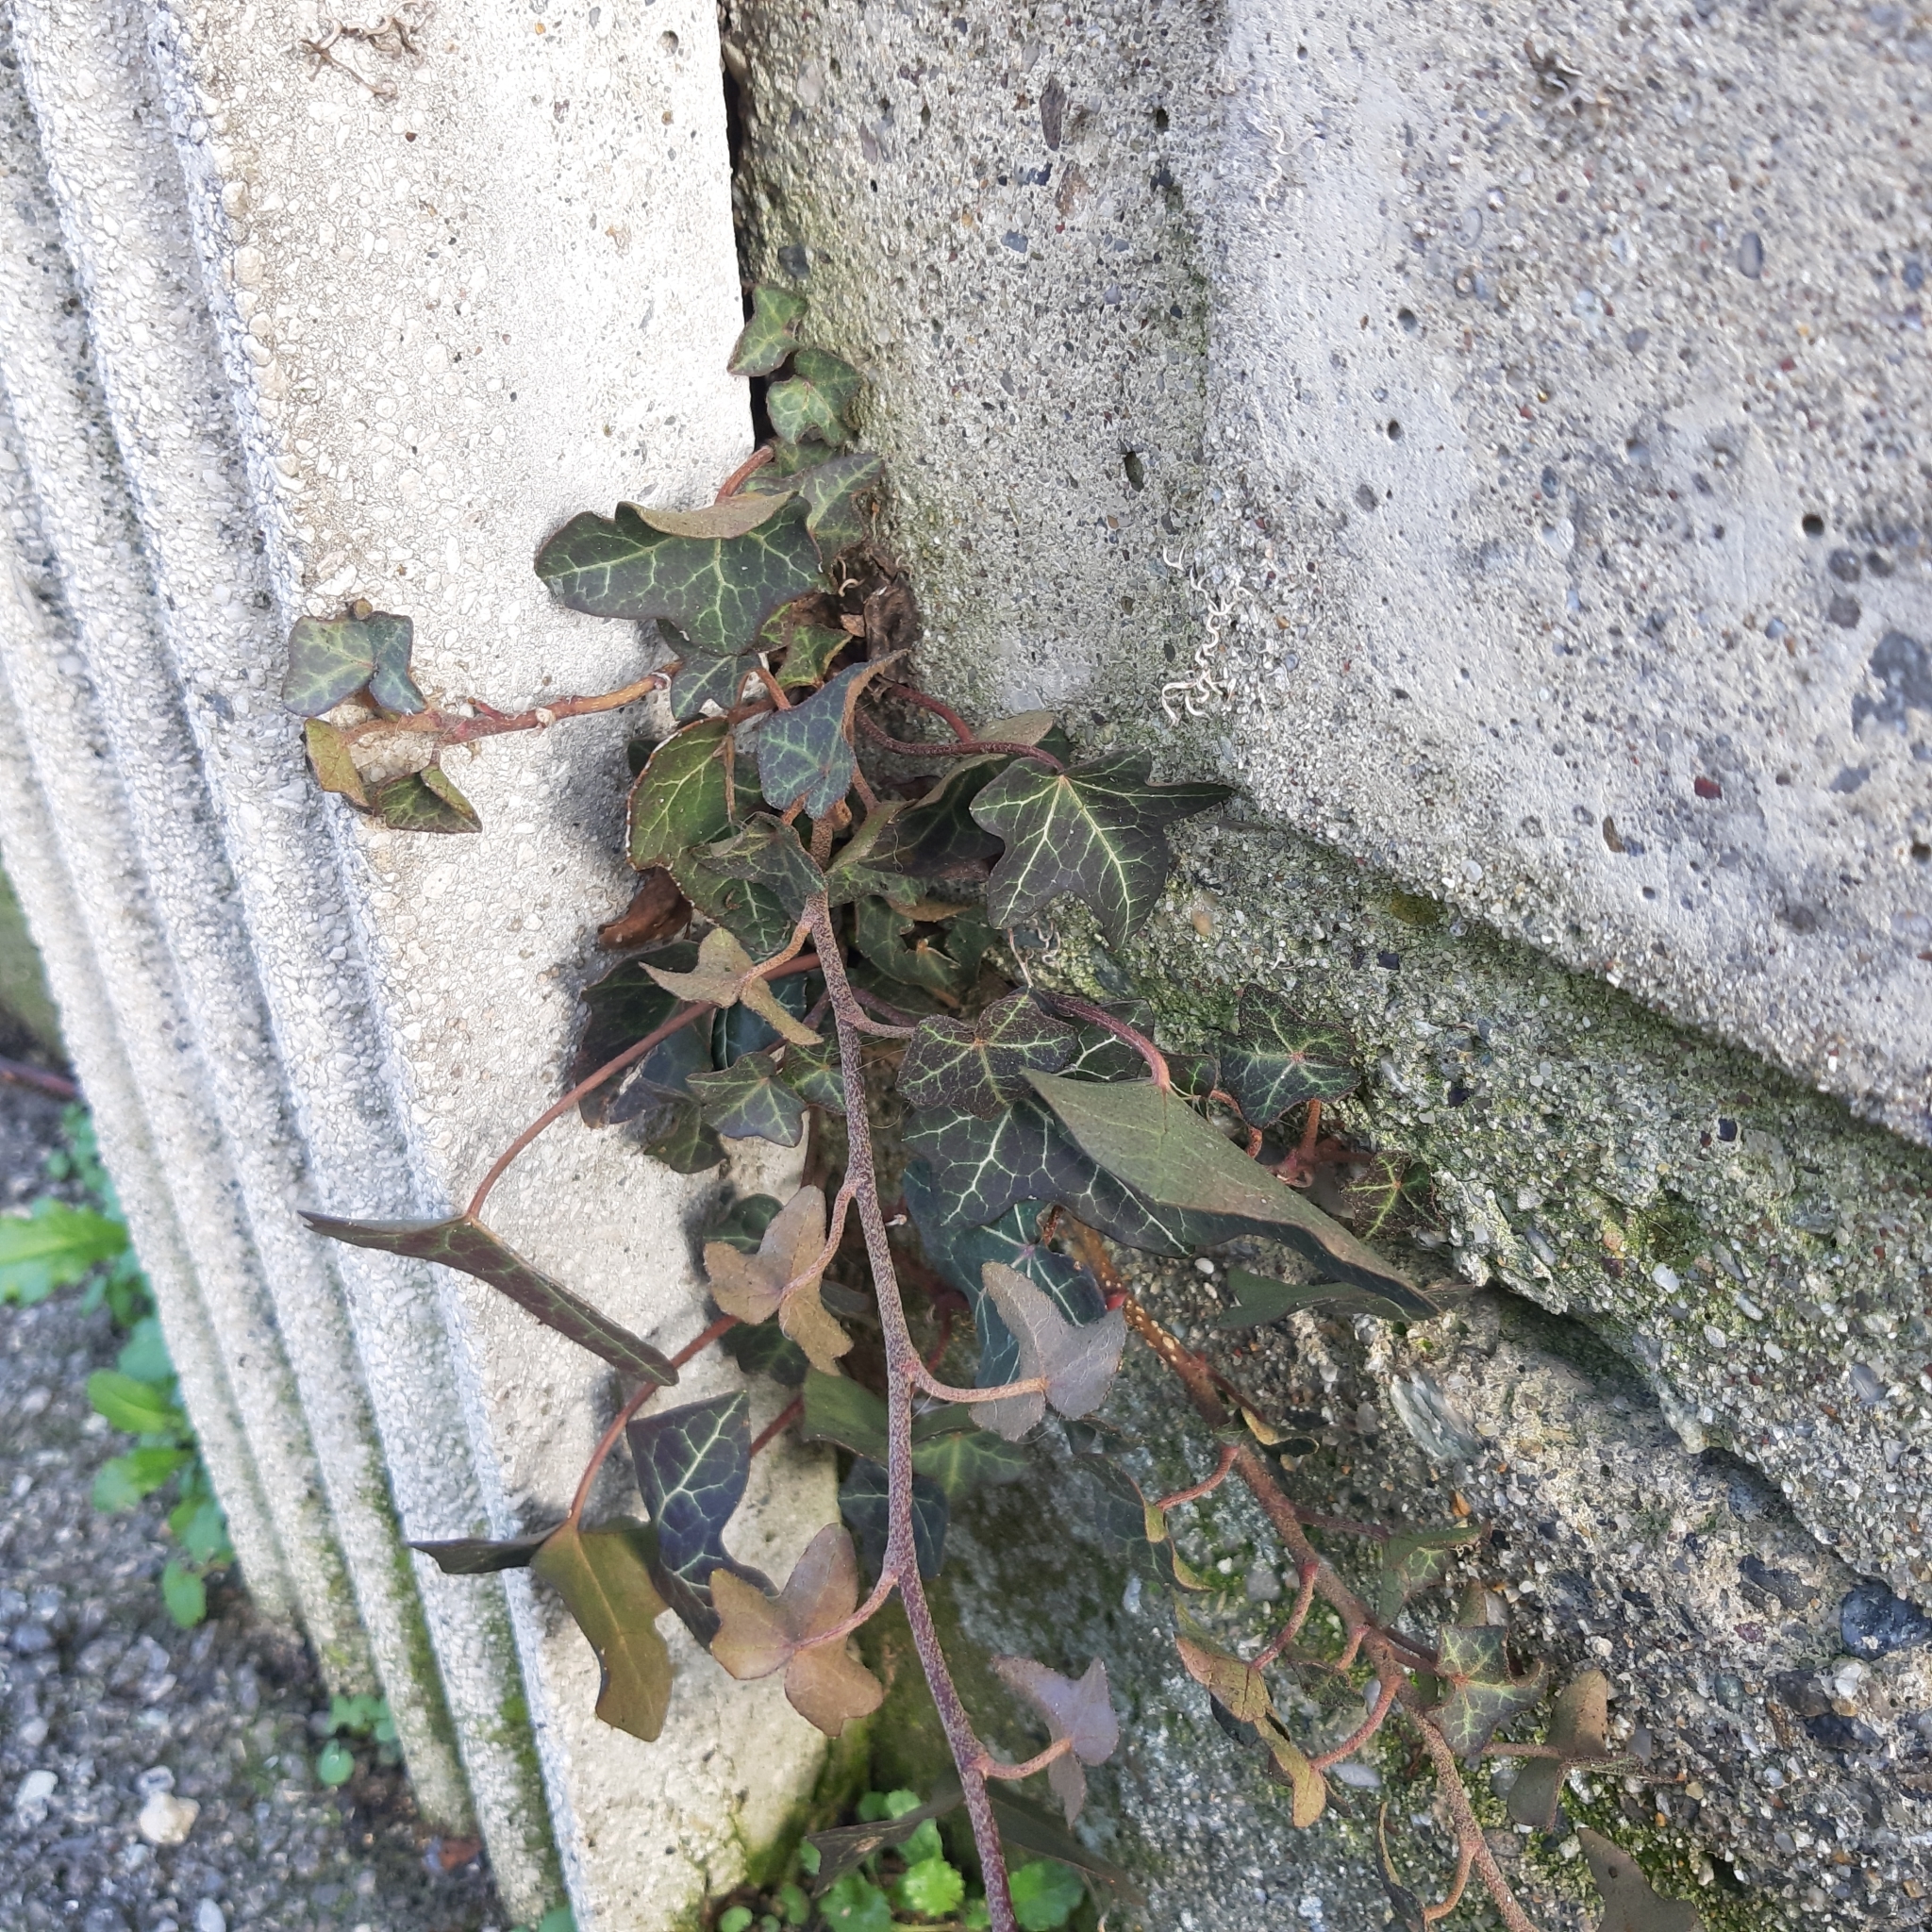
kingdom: Plantae
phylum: Tracheophyta
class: Magnoliopsida
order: Apiales
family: Araliaceae
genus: Hedera
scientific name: Hedera helix
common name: Ivy
